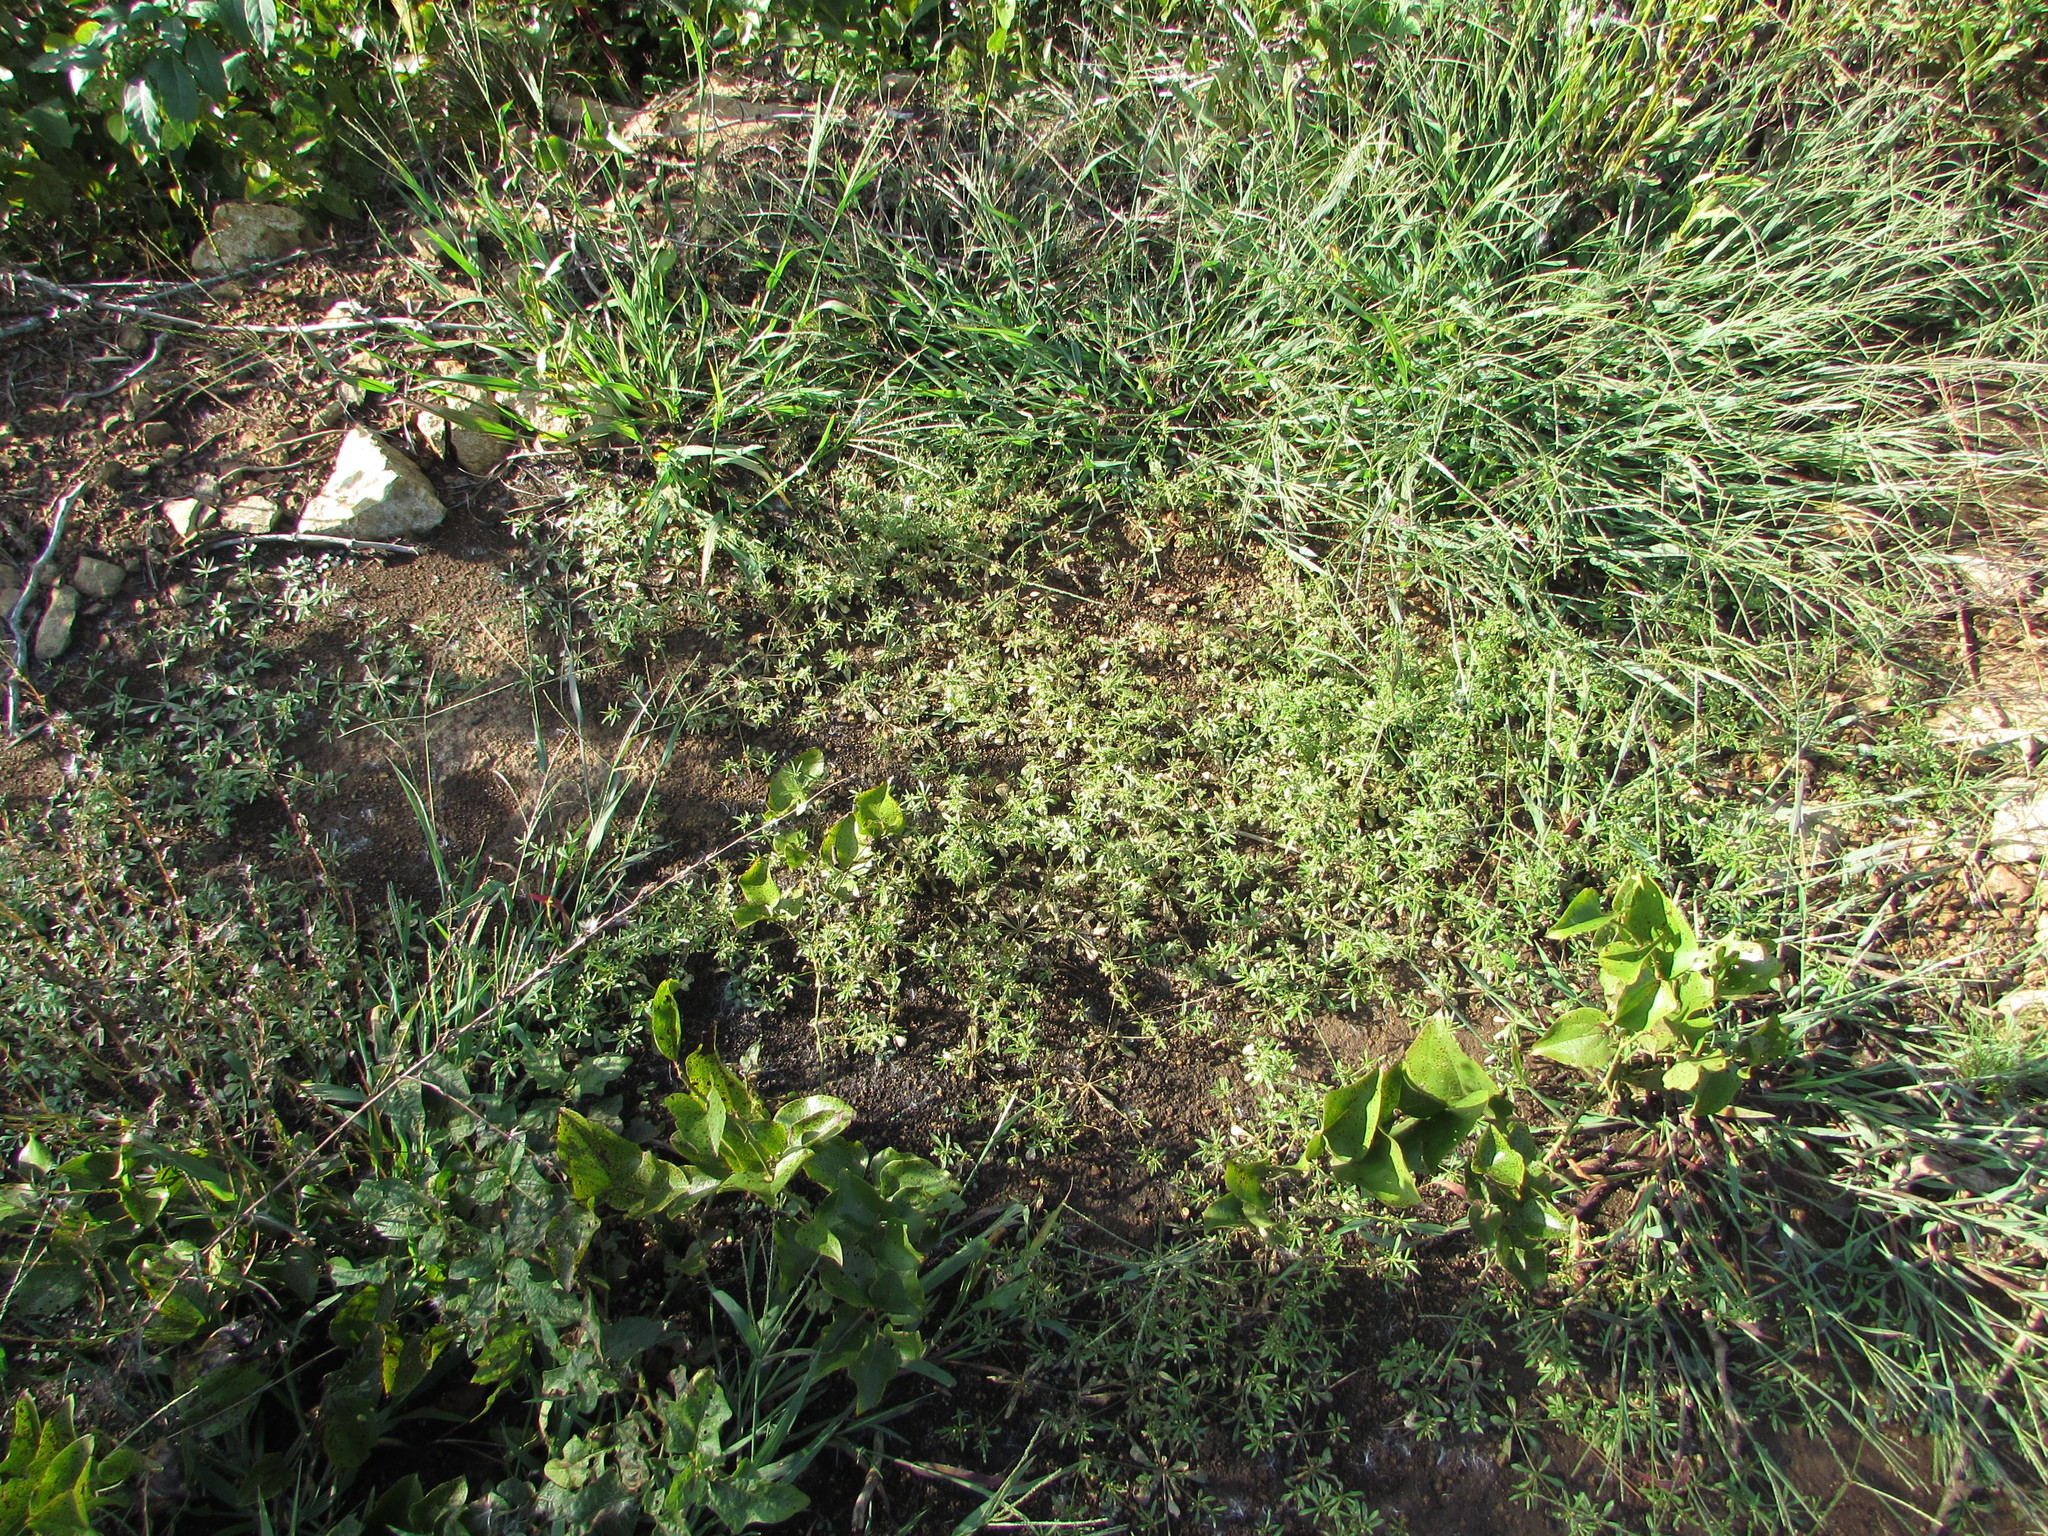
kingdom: Plantae
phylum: Tracheophyta
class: Magnoliopsida
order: Caryophyllales
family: Molluginaceae
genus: Mollugo
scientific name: Mollugo verticillata
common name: Green carpetweed
